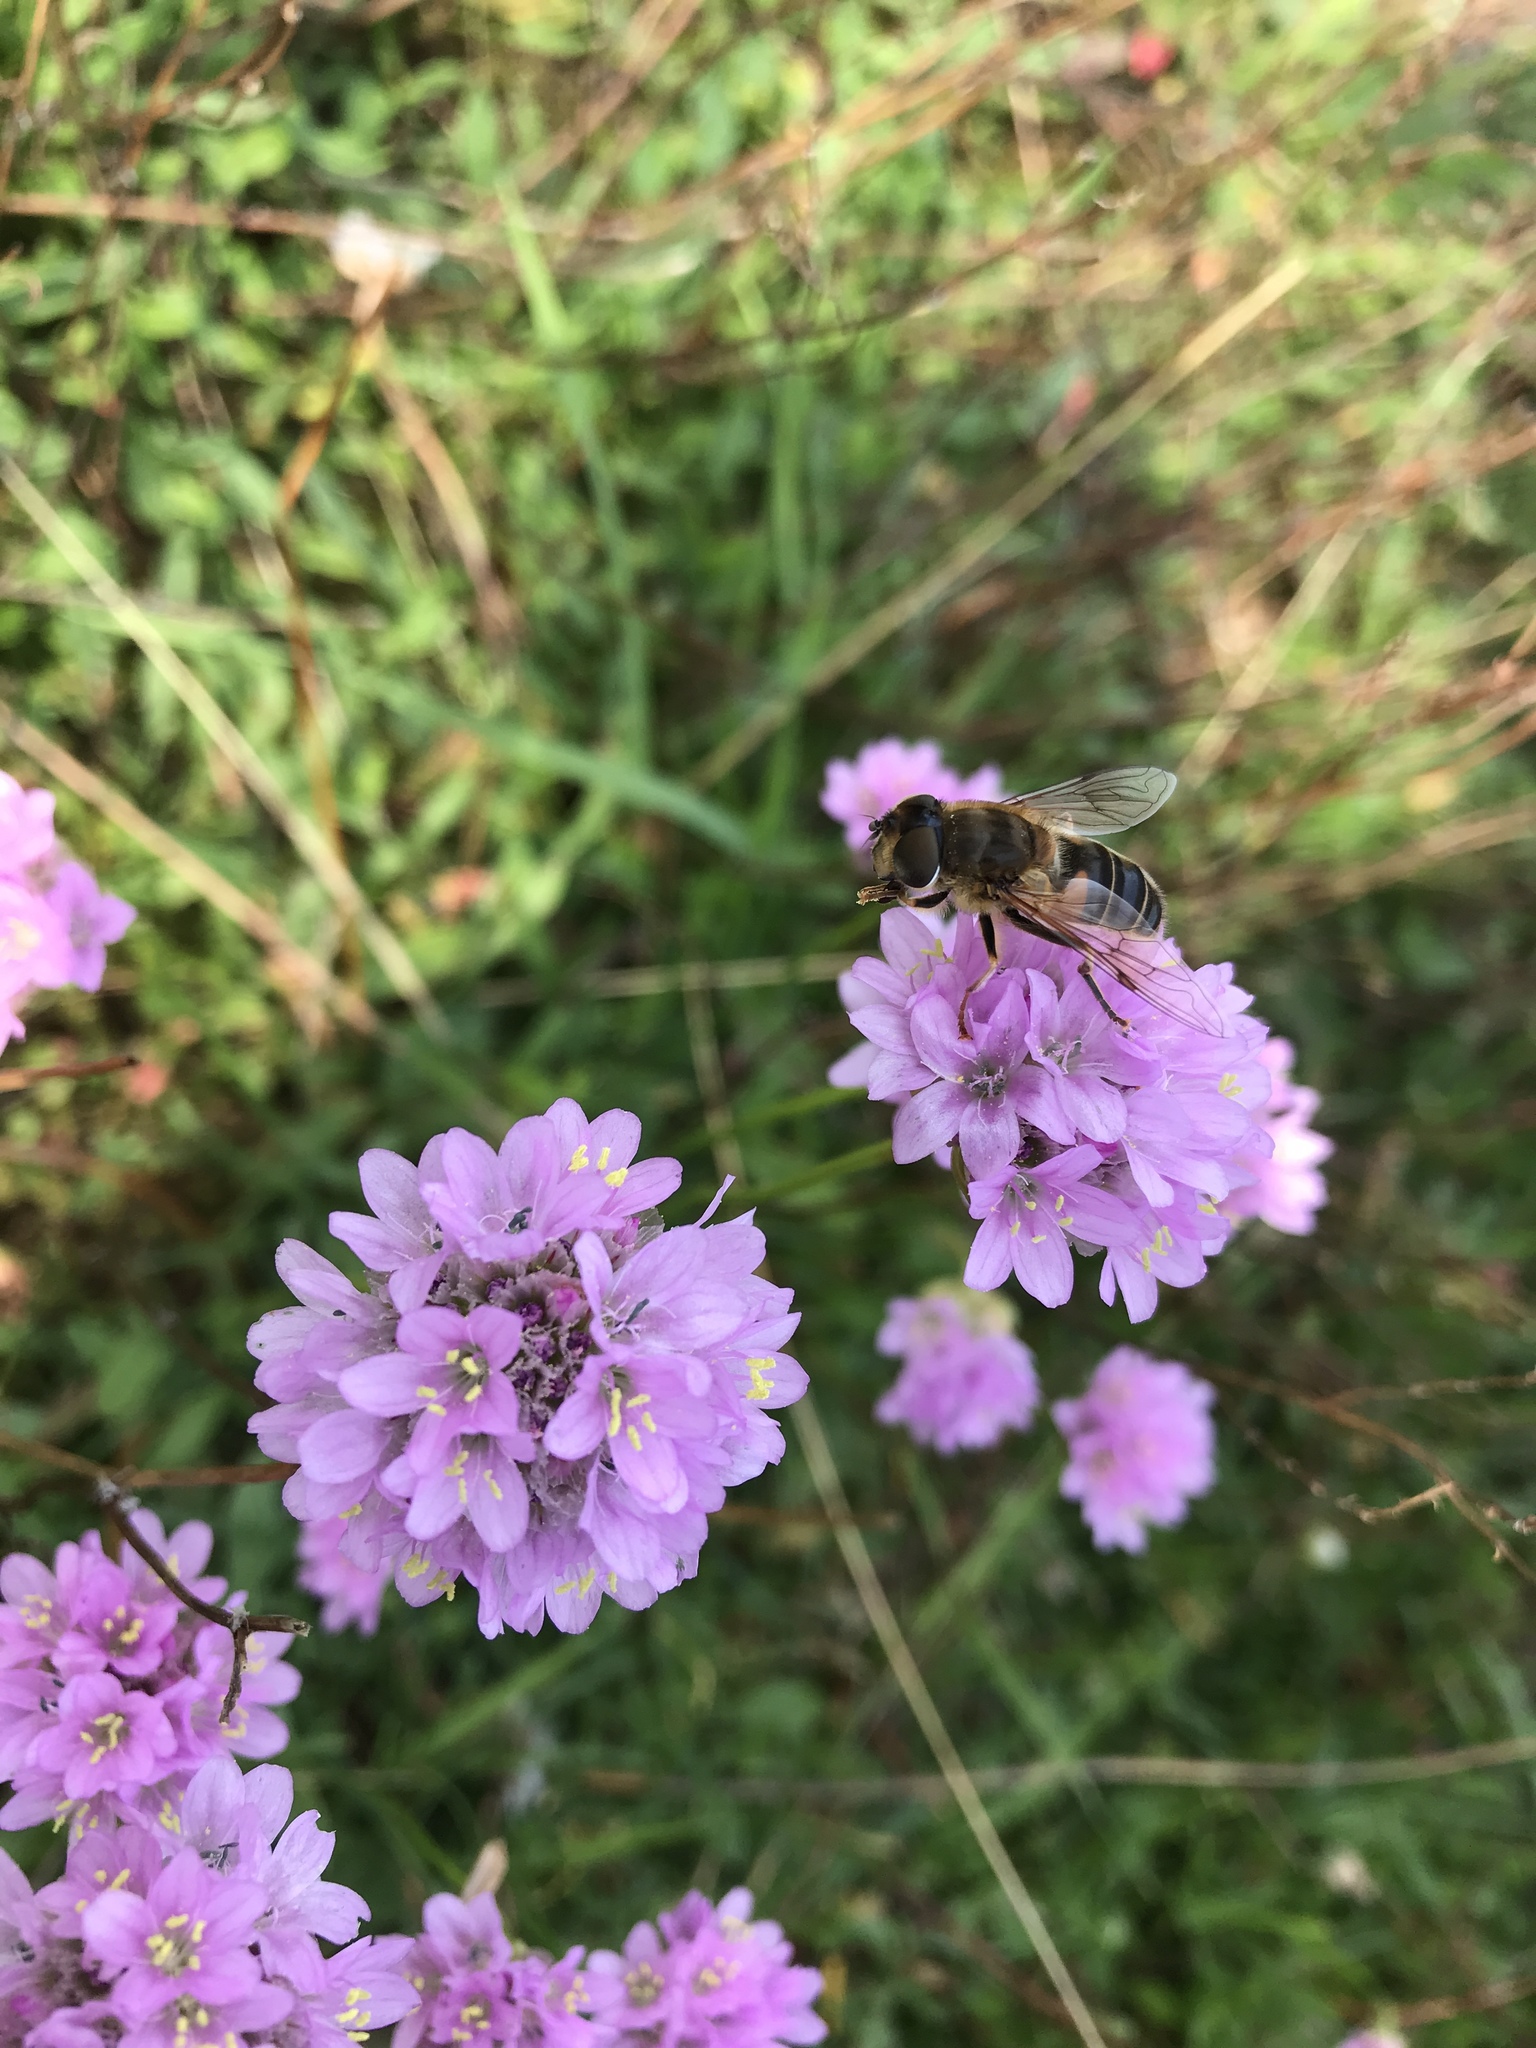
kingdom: Animalia
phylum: Arthropoda
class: Insecta
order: Diptera
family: Syrphidae
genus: Eristalis
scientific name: Eristalis pertinax
